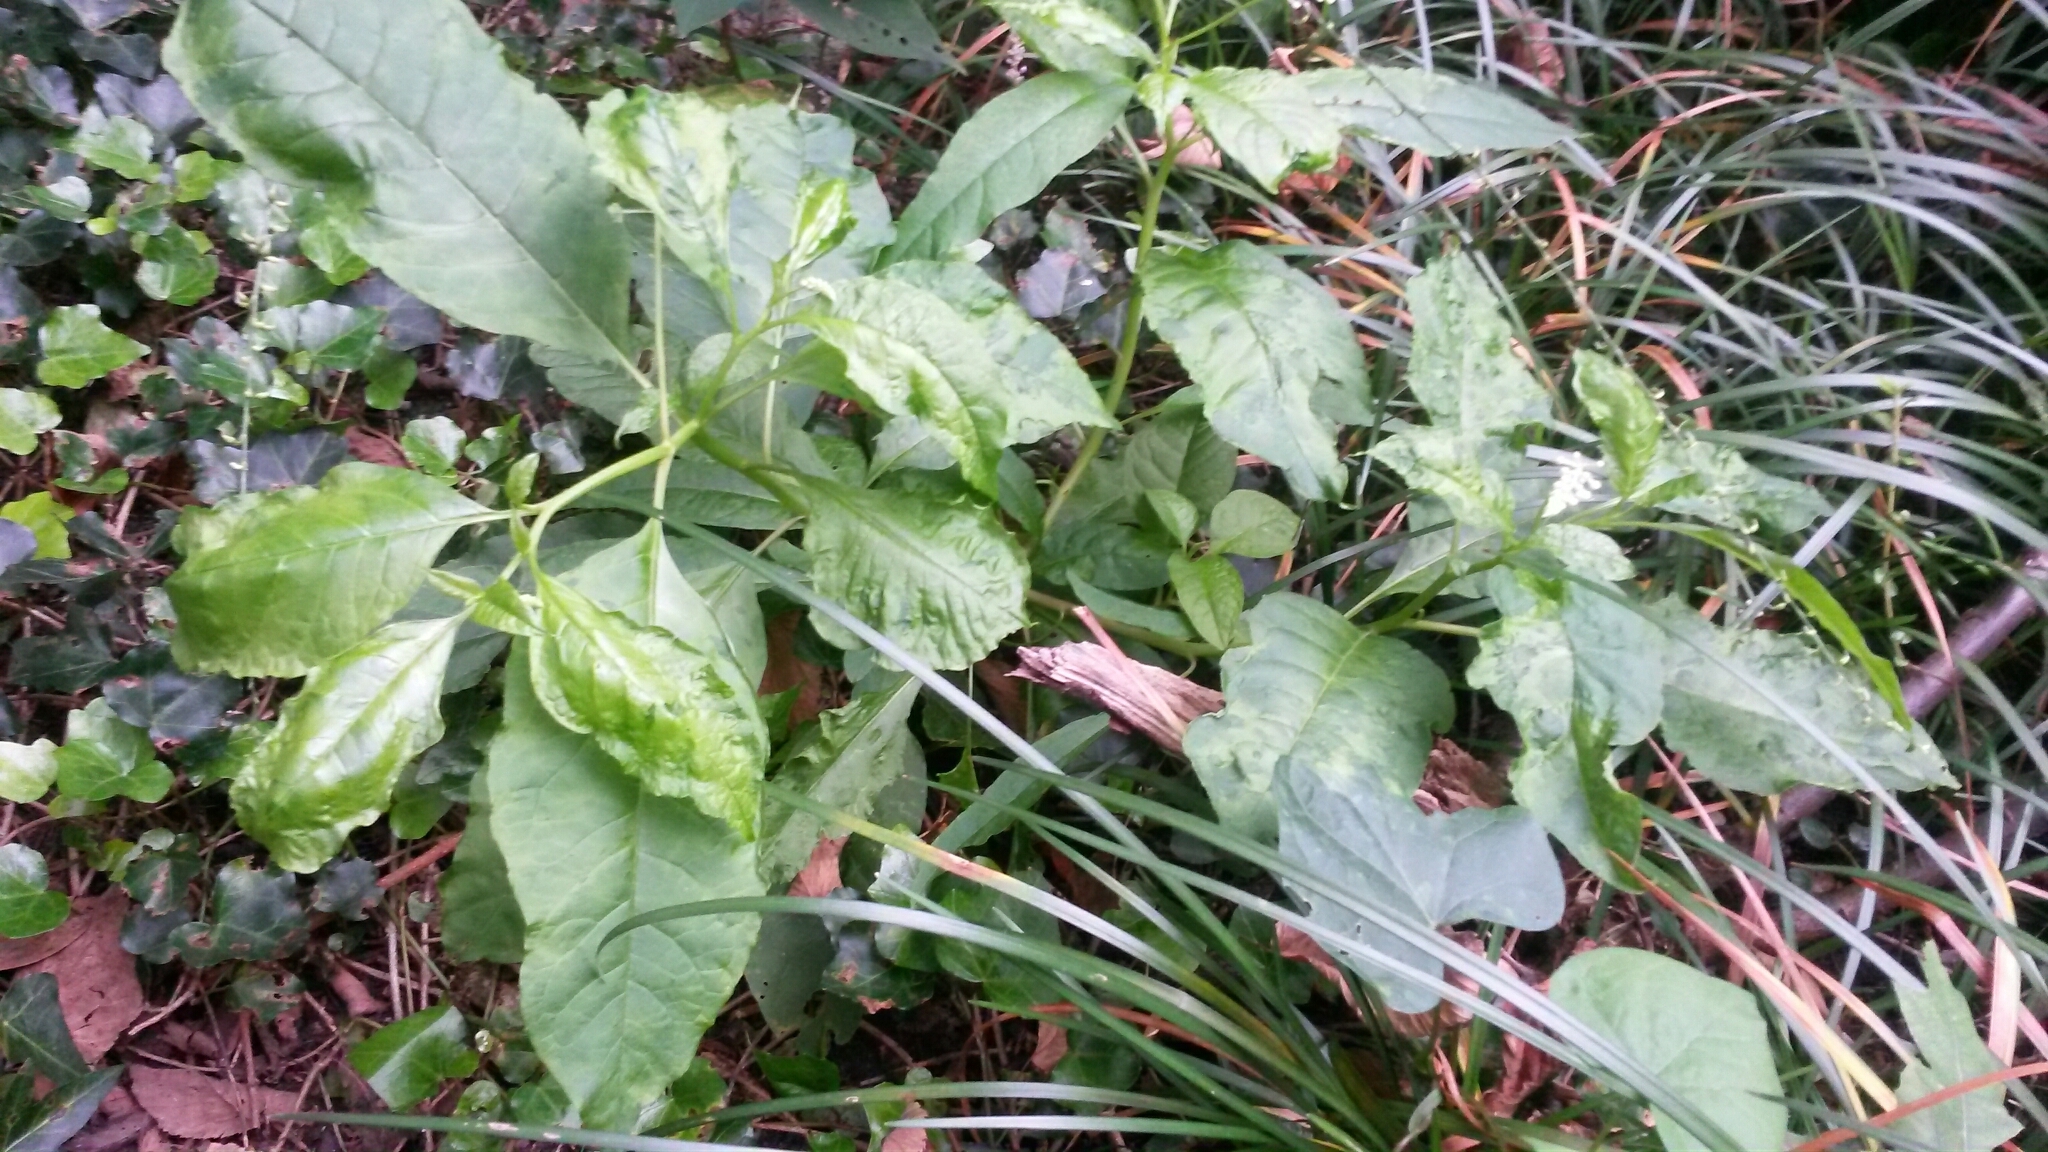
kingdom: Plantae
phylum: Tracheophyta
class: Magnoliopsida
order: Caryophyllales
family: Phytolaccaceae
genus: Phytolacca
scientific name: Phytolacca americana
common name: American pokeweed
